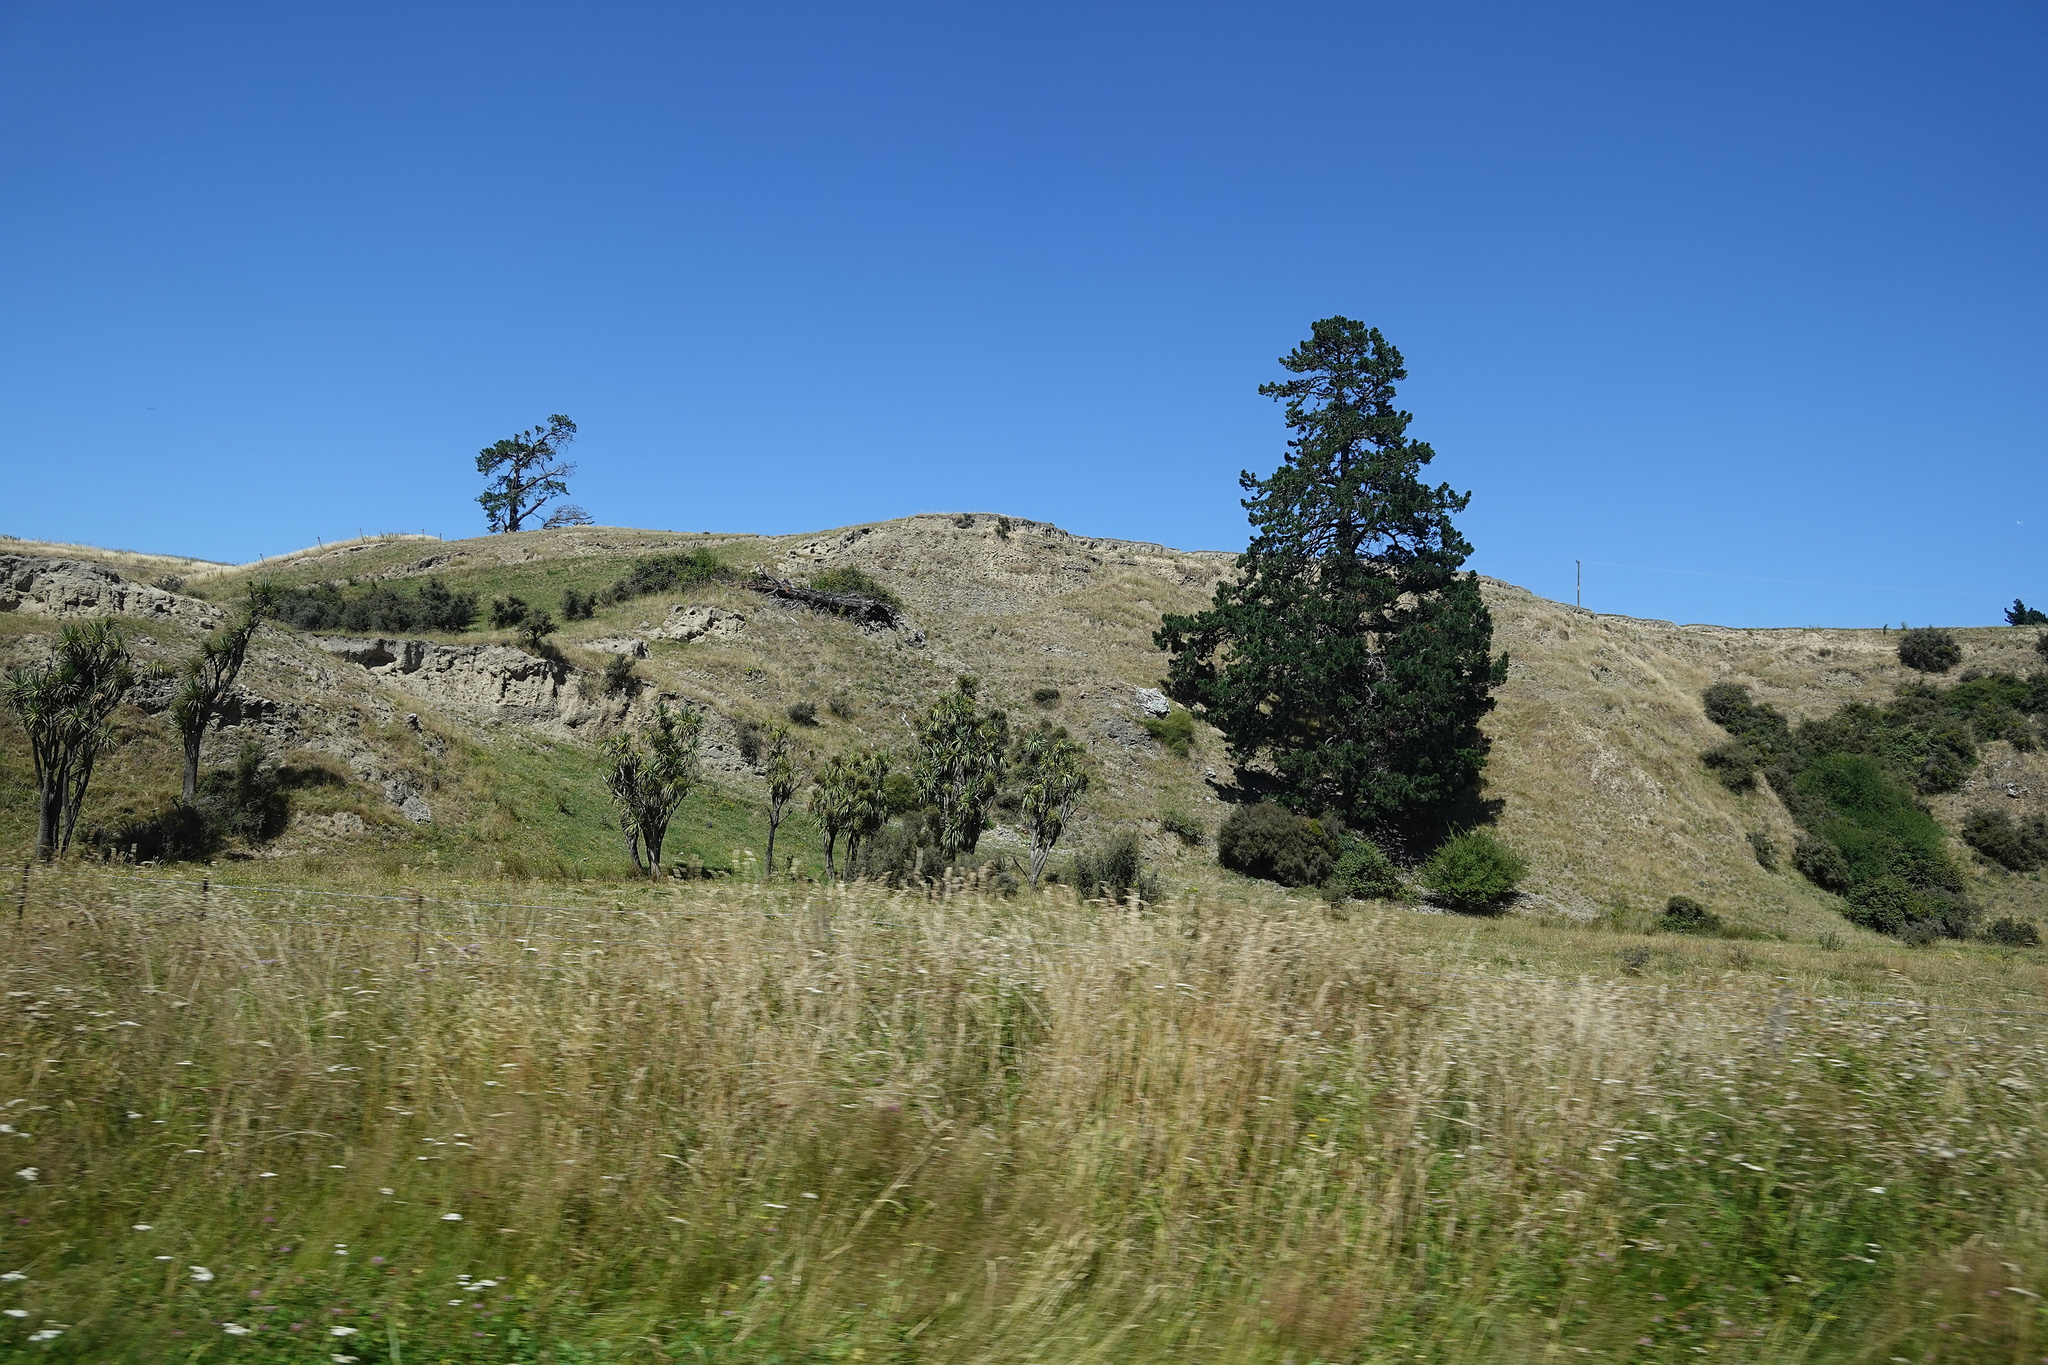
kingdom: Plantae
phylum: Tracheophyta
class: Liliopsida
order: Asparagales
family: Asparagaceae
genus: Cordyline
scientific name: Cordyline australis
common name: Cabbage-palm
